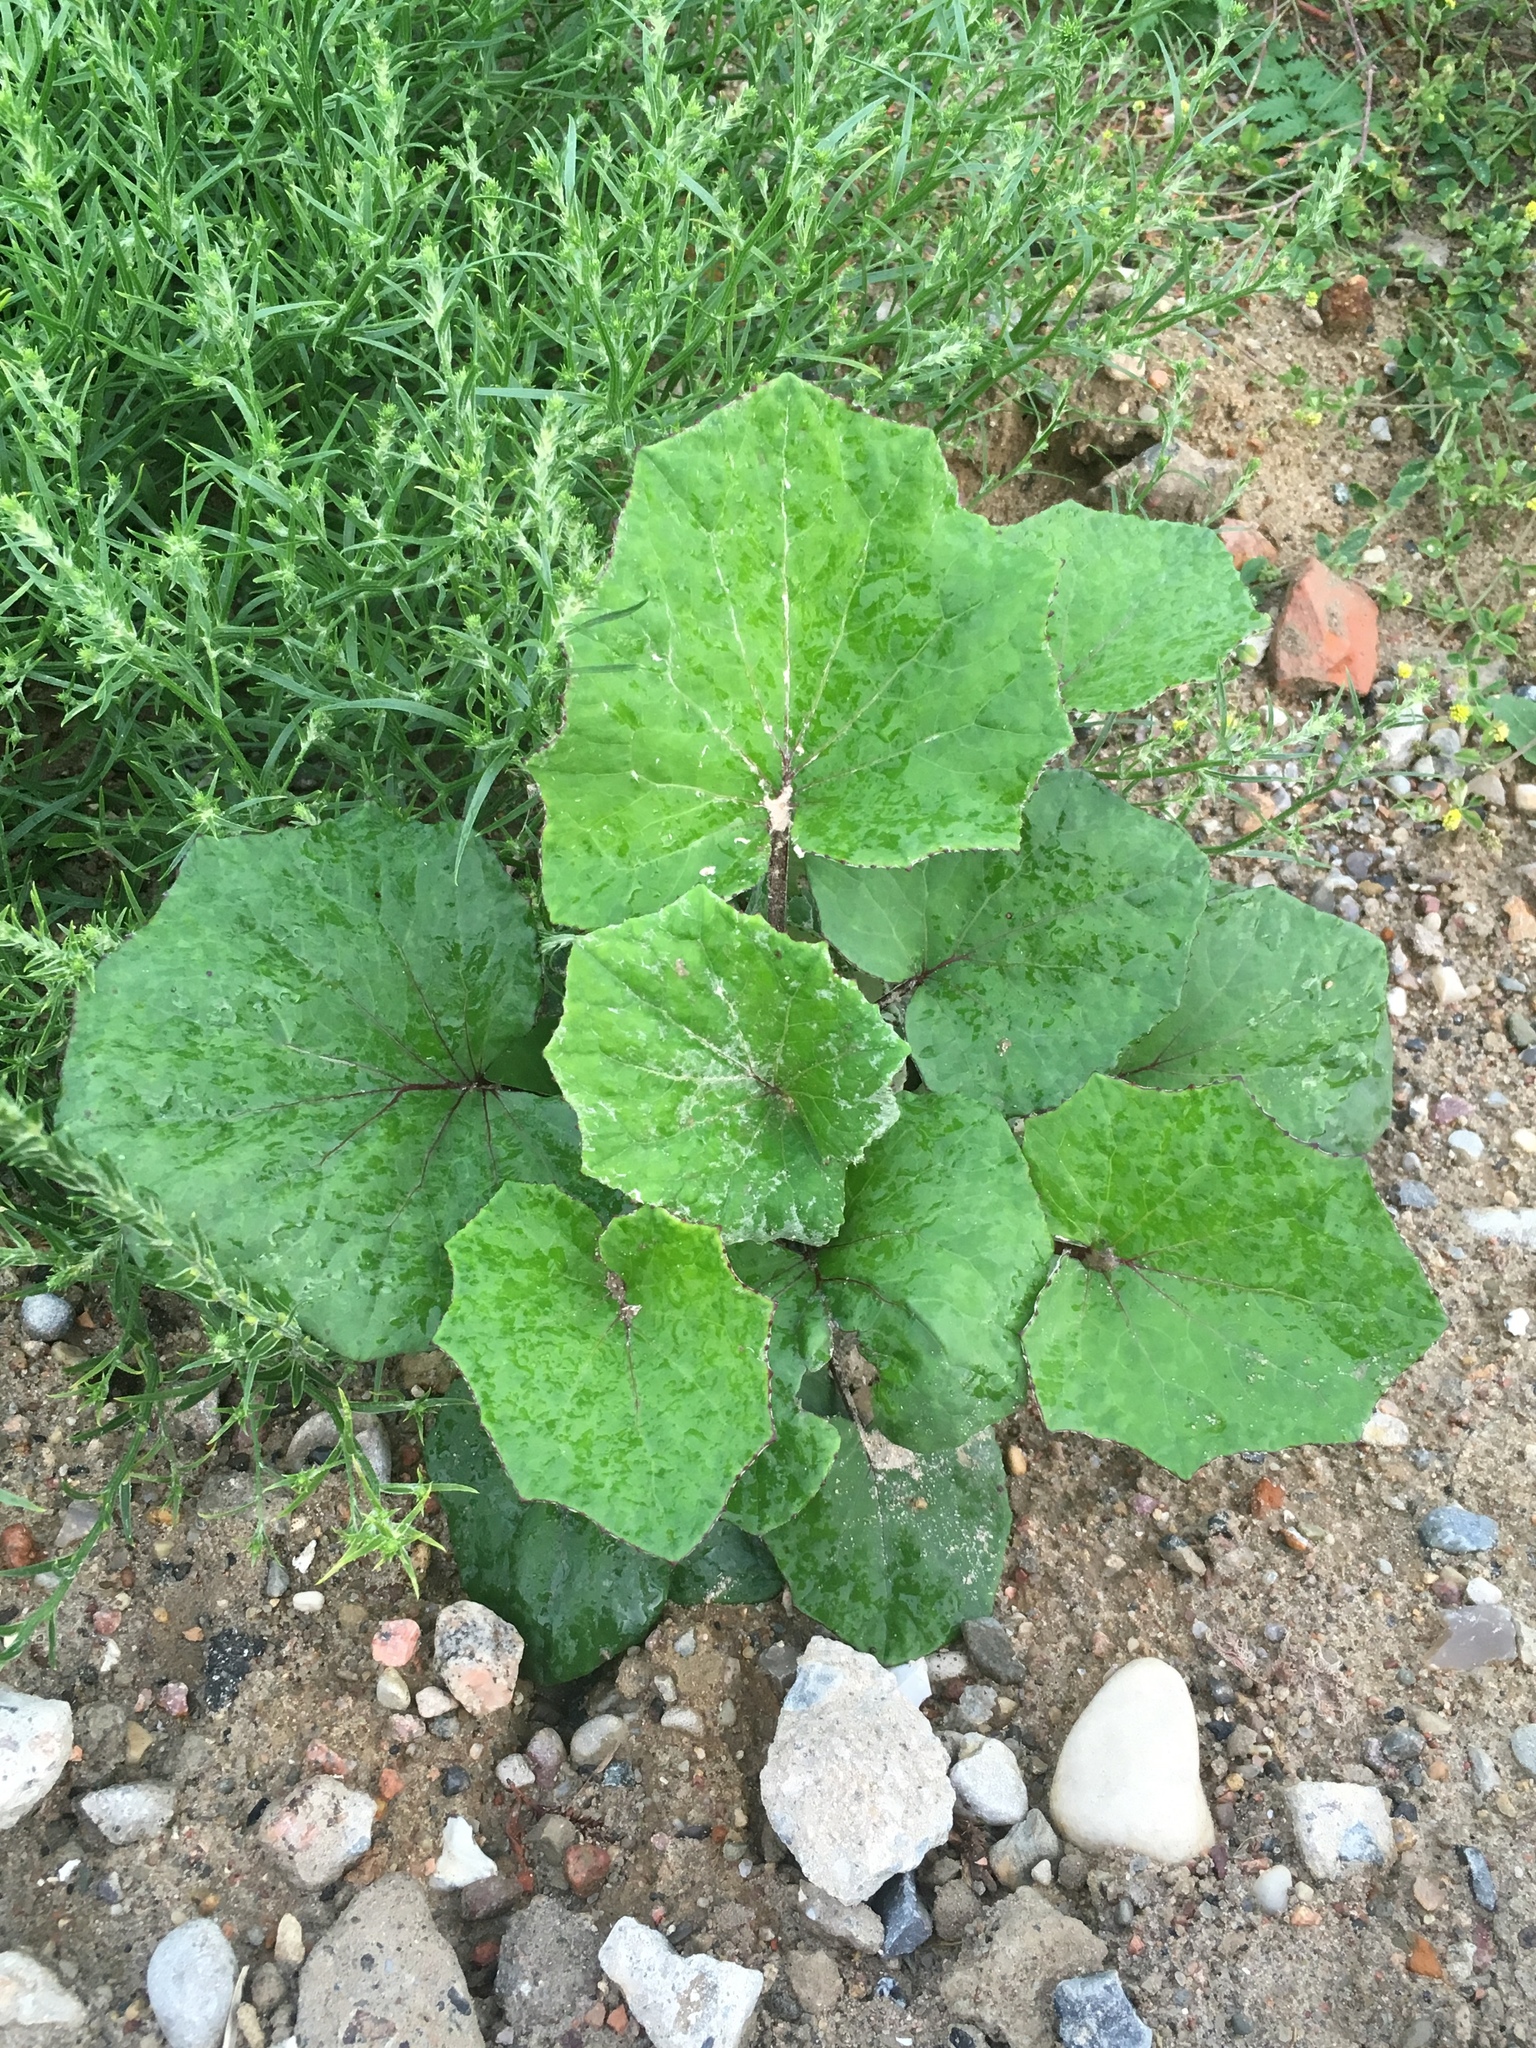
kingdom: Plantae
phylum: Tracheophyta
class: Magnoliopsida
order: Asterales
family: Asteraceae
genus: Tussilago
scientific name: Tussilago farfara
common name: Coltsfoot
